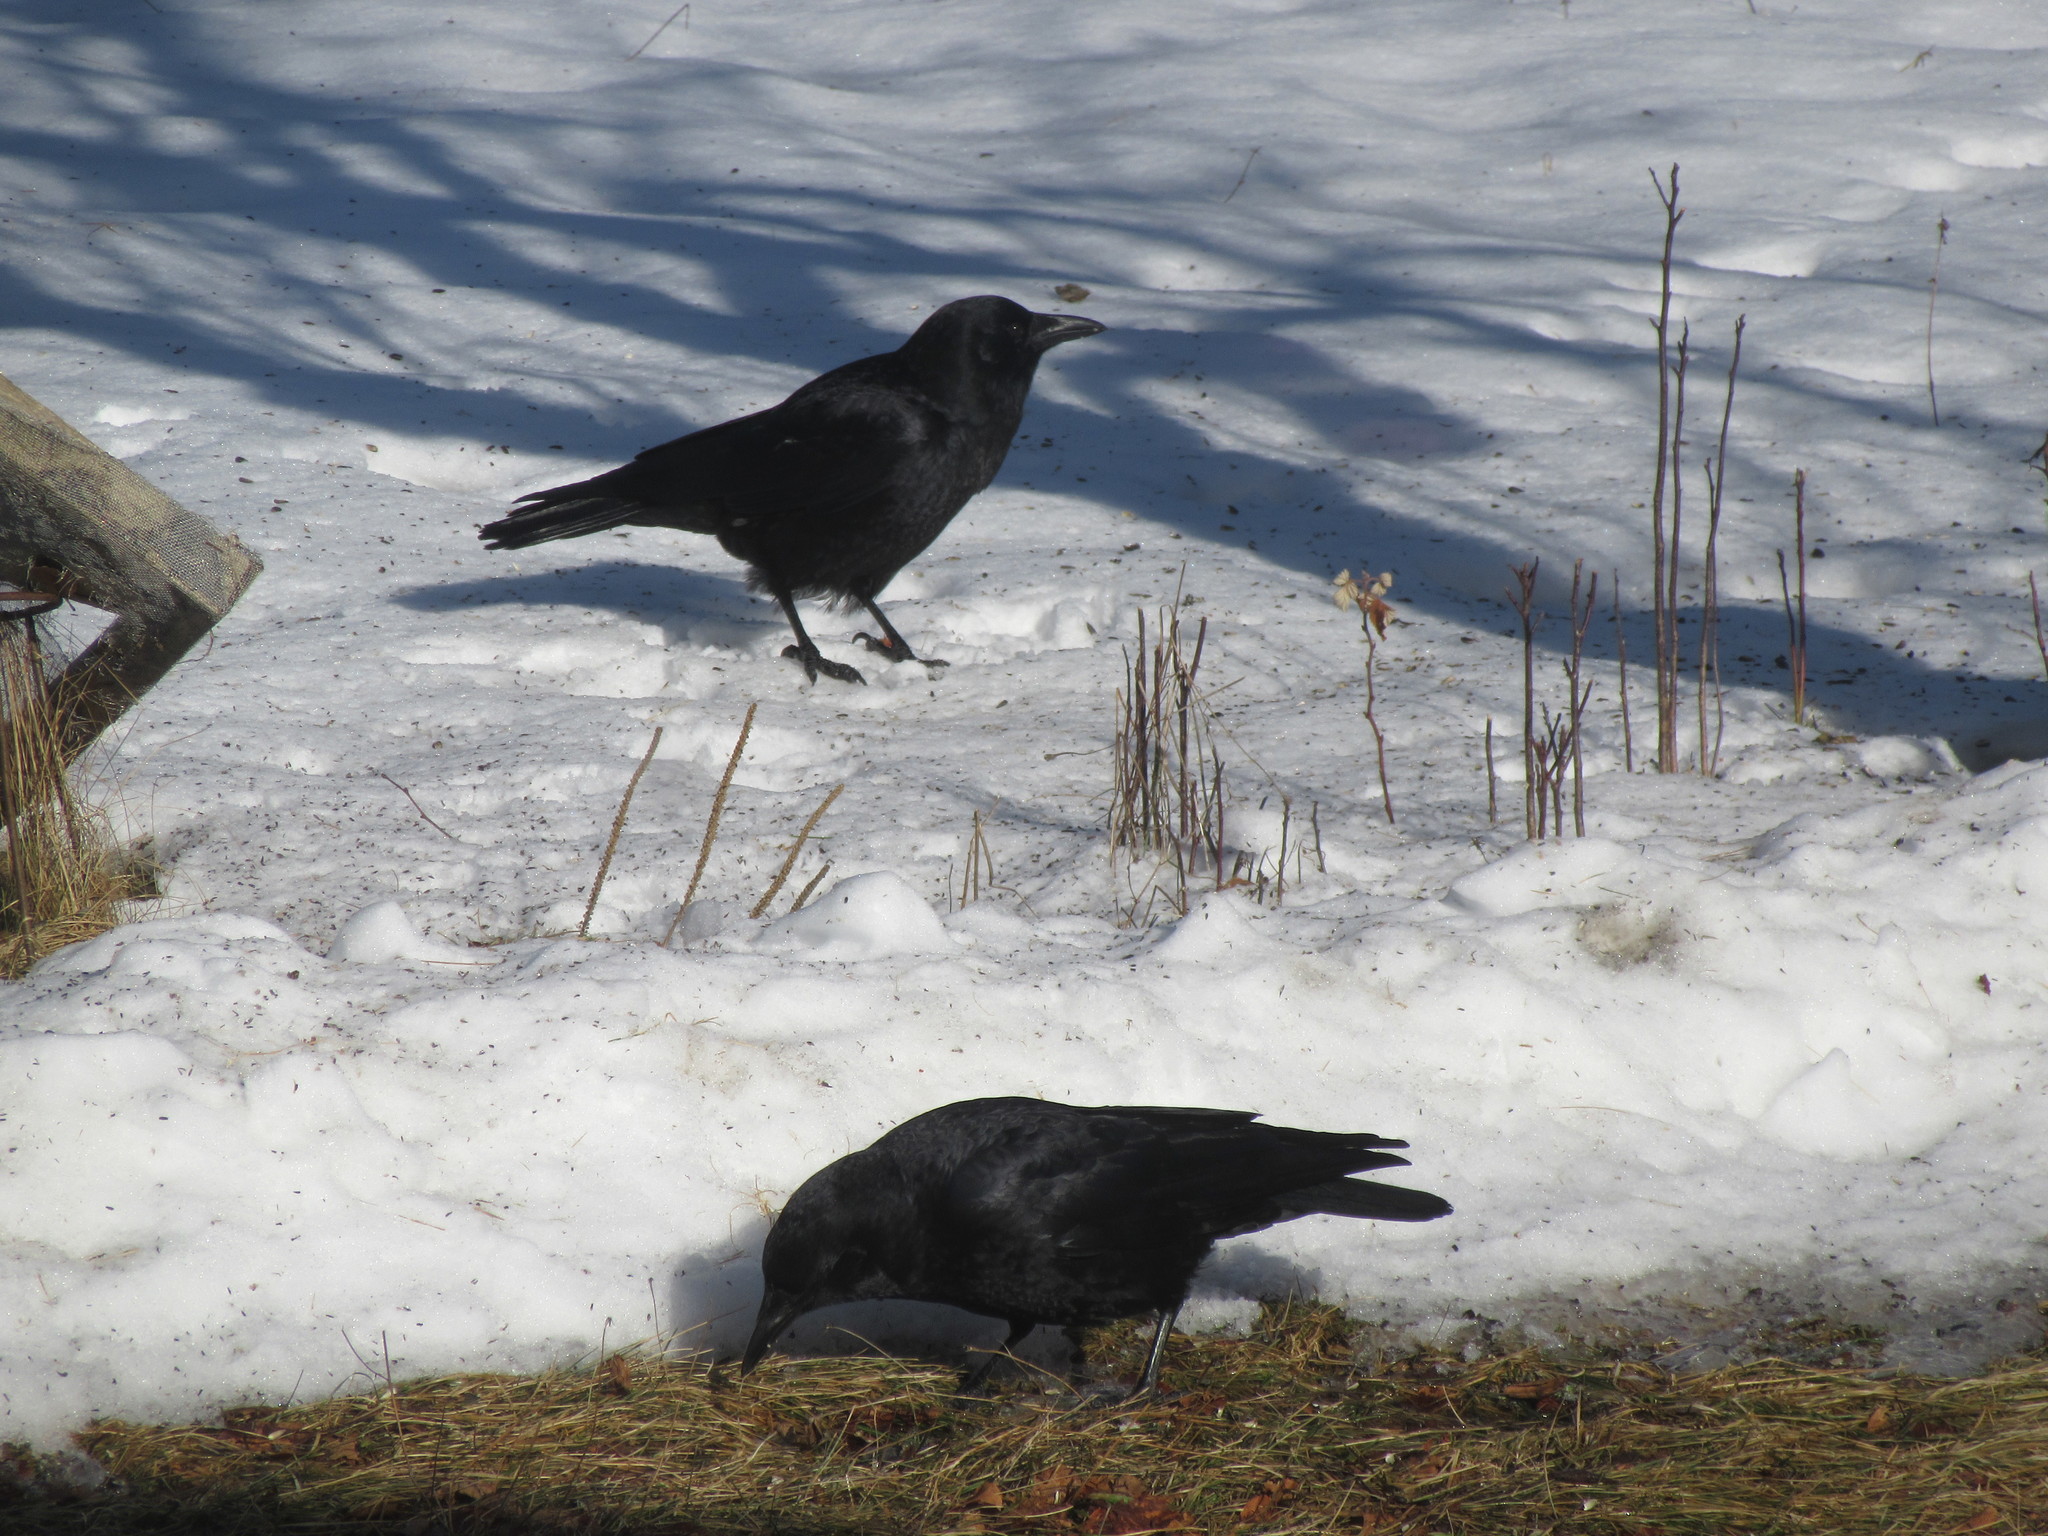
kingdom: Animalia
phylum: Chordata
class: Aves
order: Passeriformes
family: Corvidae
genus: Corvus
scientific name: Corvus brachyrhynchos
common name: American crow
